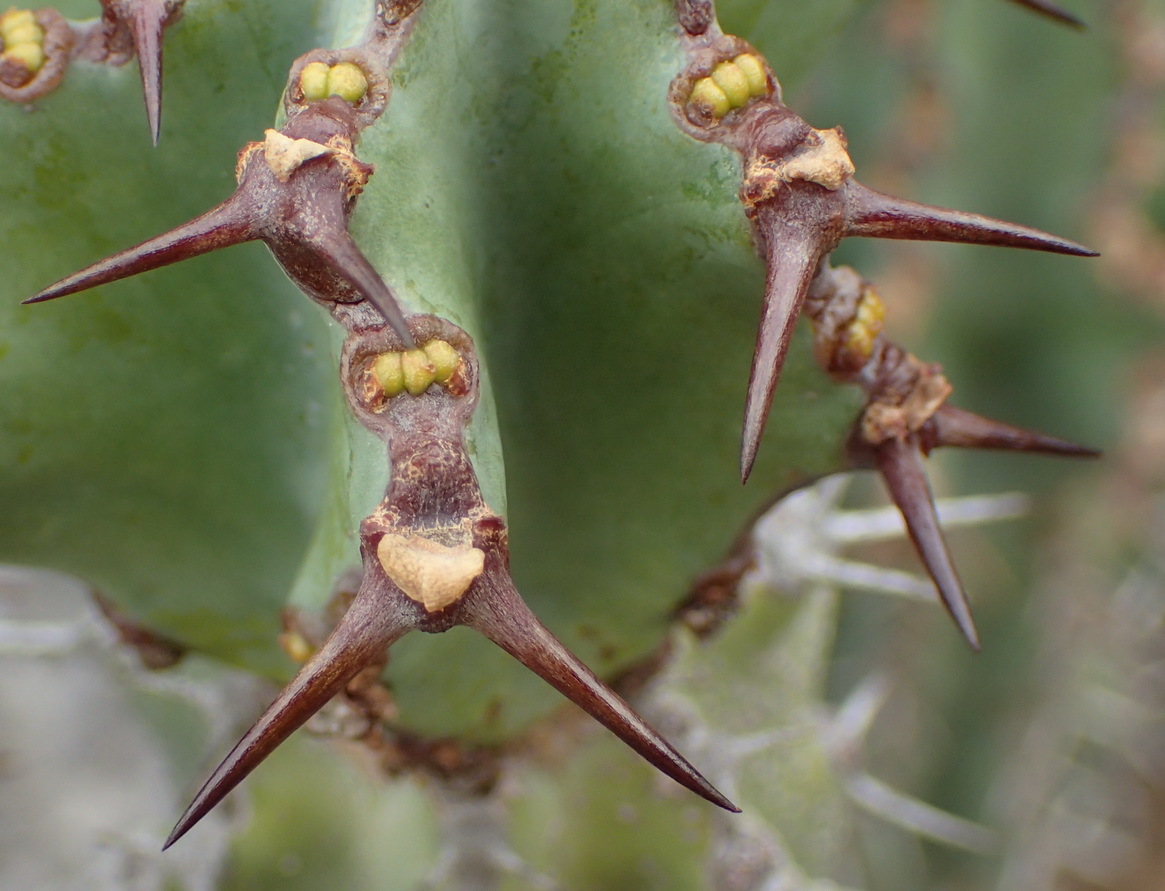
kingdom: Plantae
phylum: Tracheophyta
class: Magnoliopsida
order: Malpighiales
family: Euphorbiaceae
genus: Euphorbia
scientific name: Euphorbia radyeri
